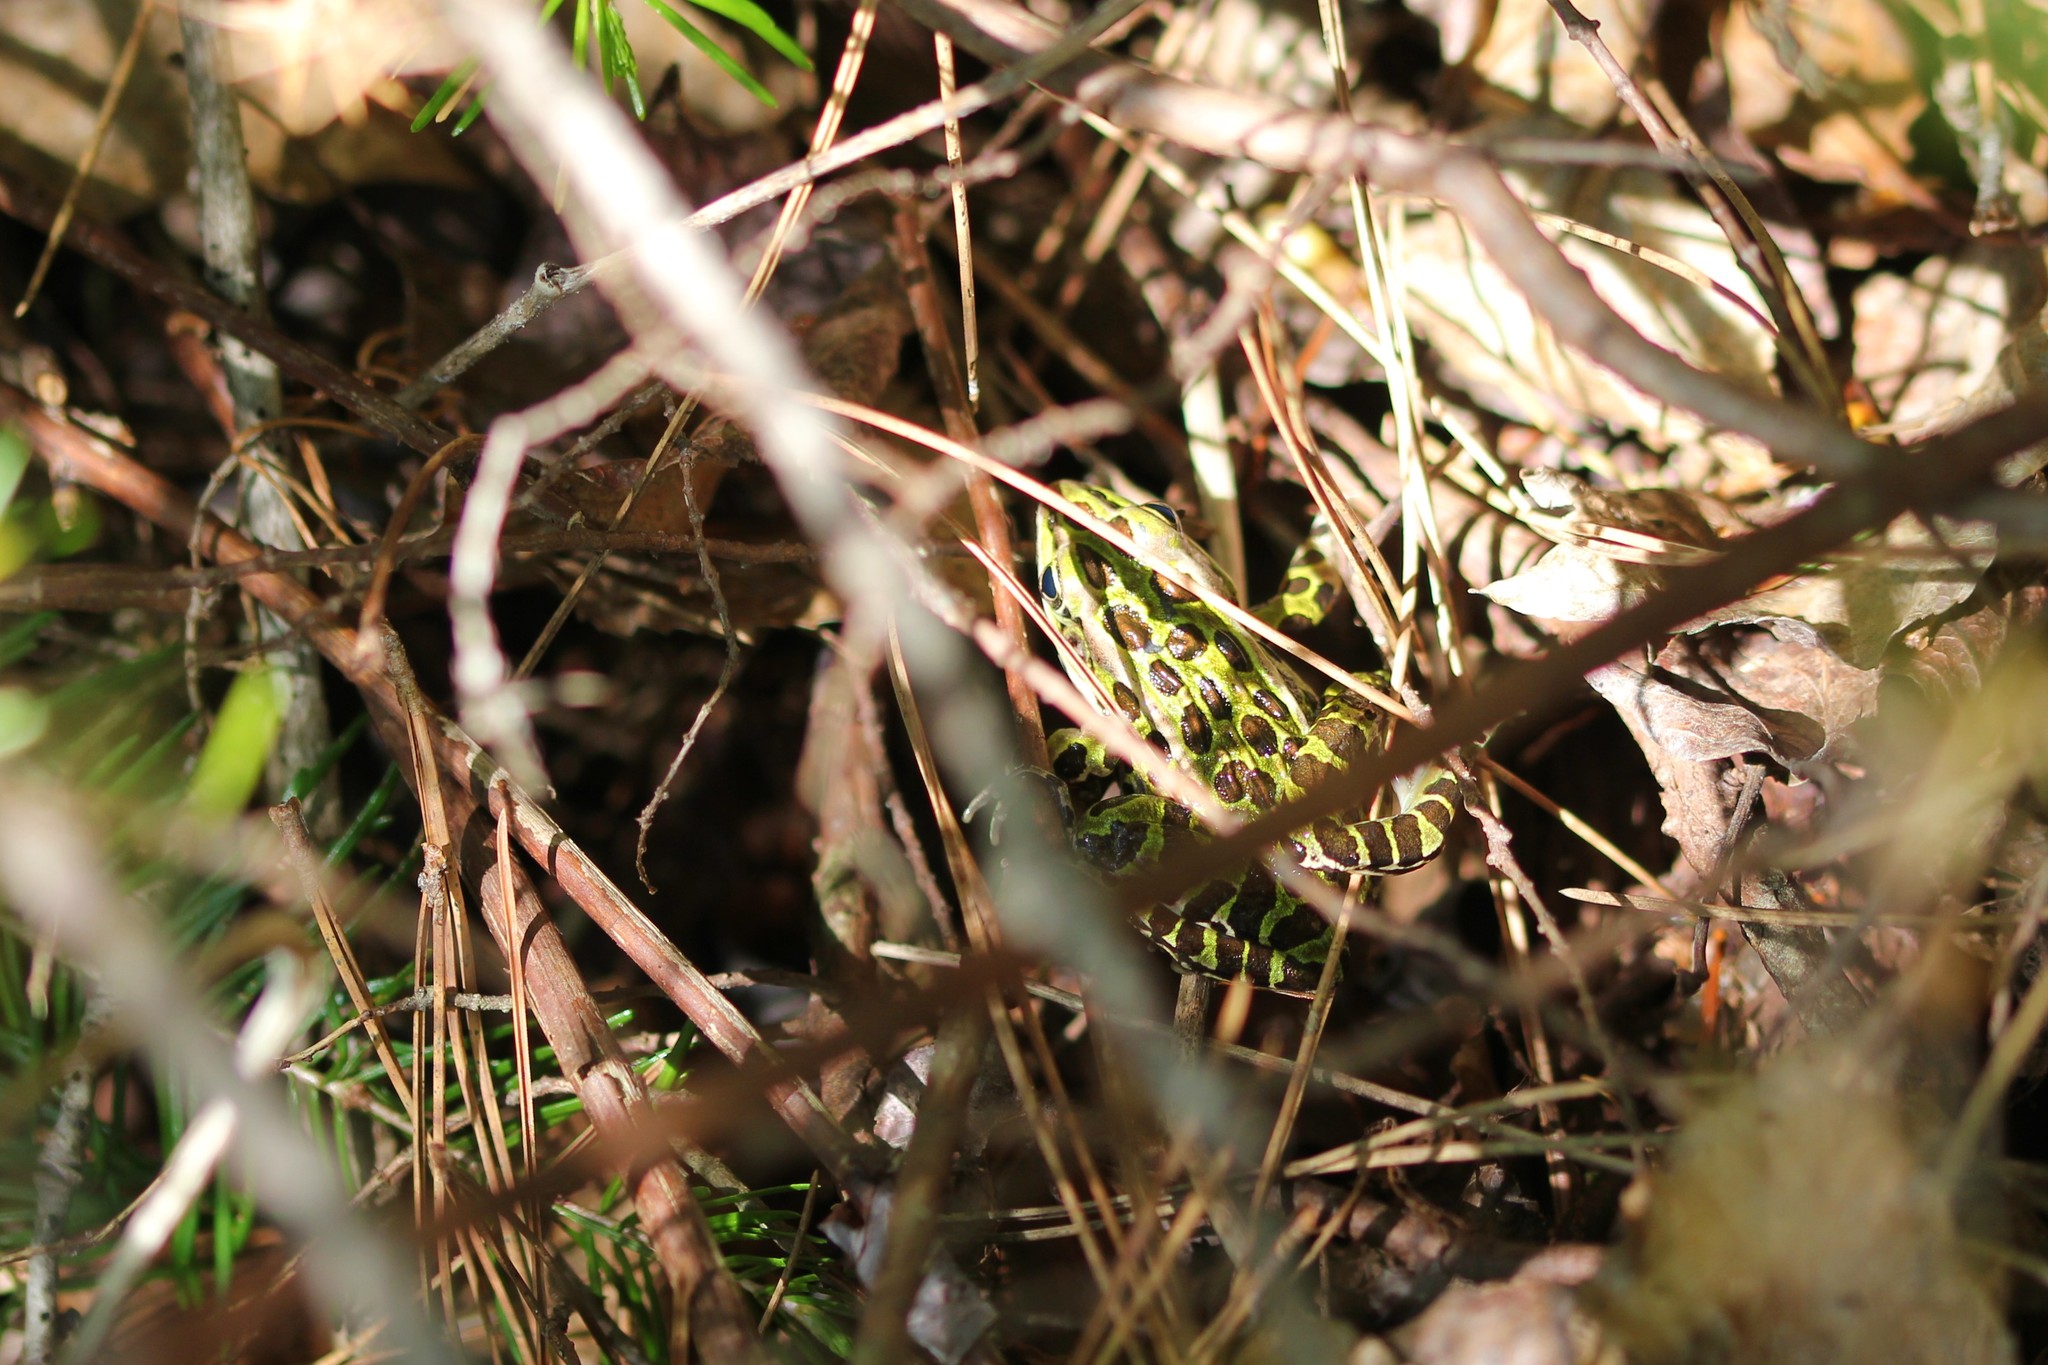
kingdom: Animalia
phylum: Chordata
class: Amphibia
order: Anura
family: Ranidae
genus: Lithobates
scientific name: Lithobates pipiens
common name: Northern leopard frog
